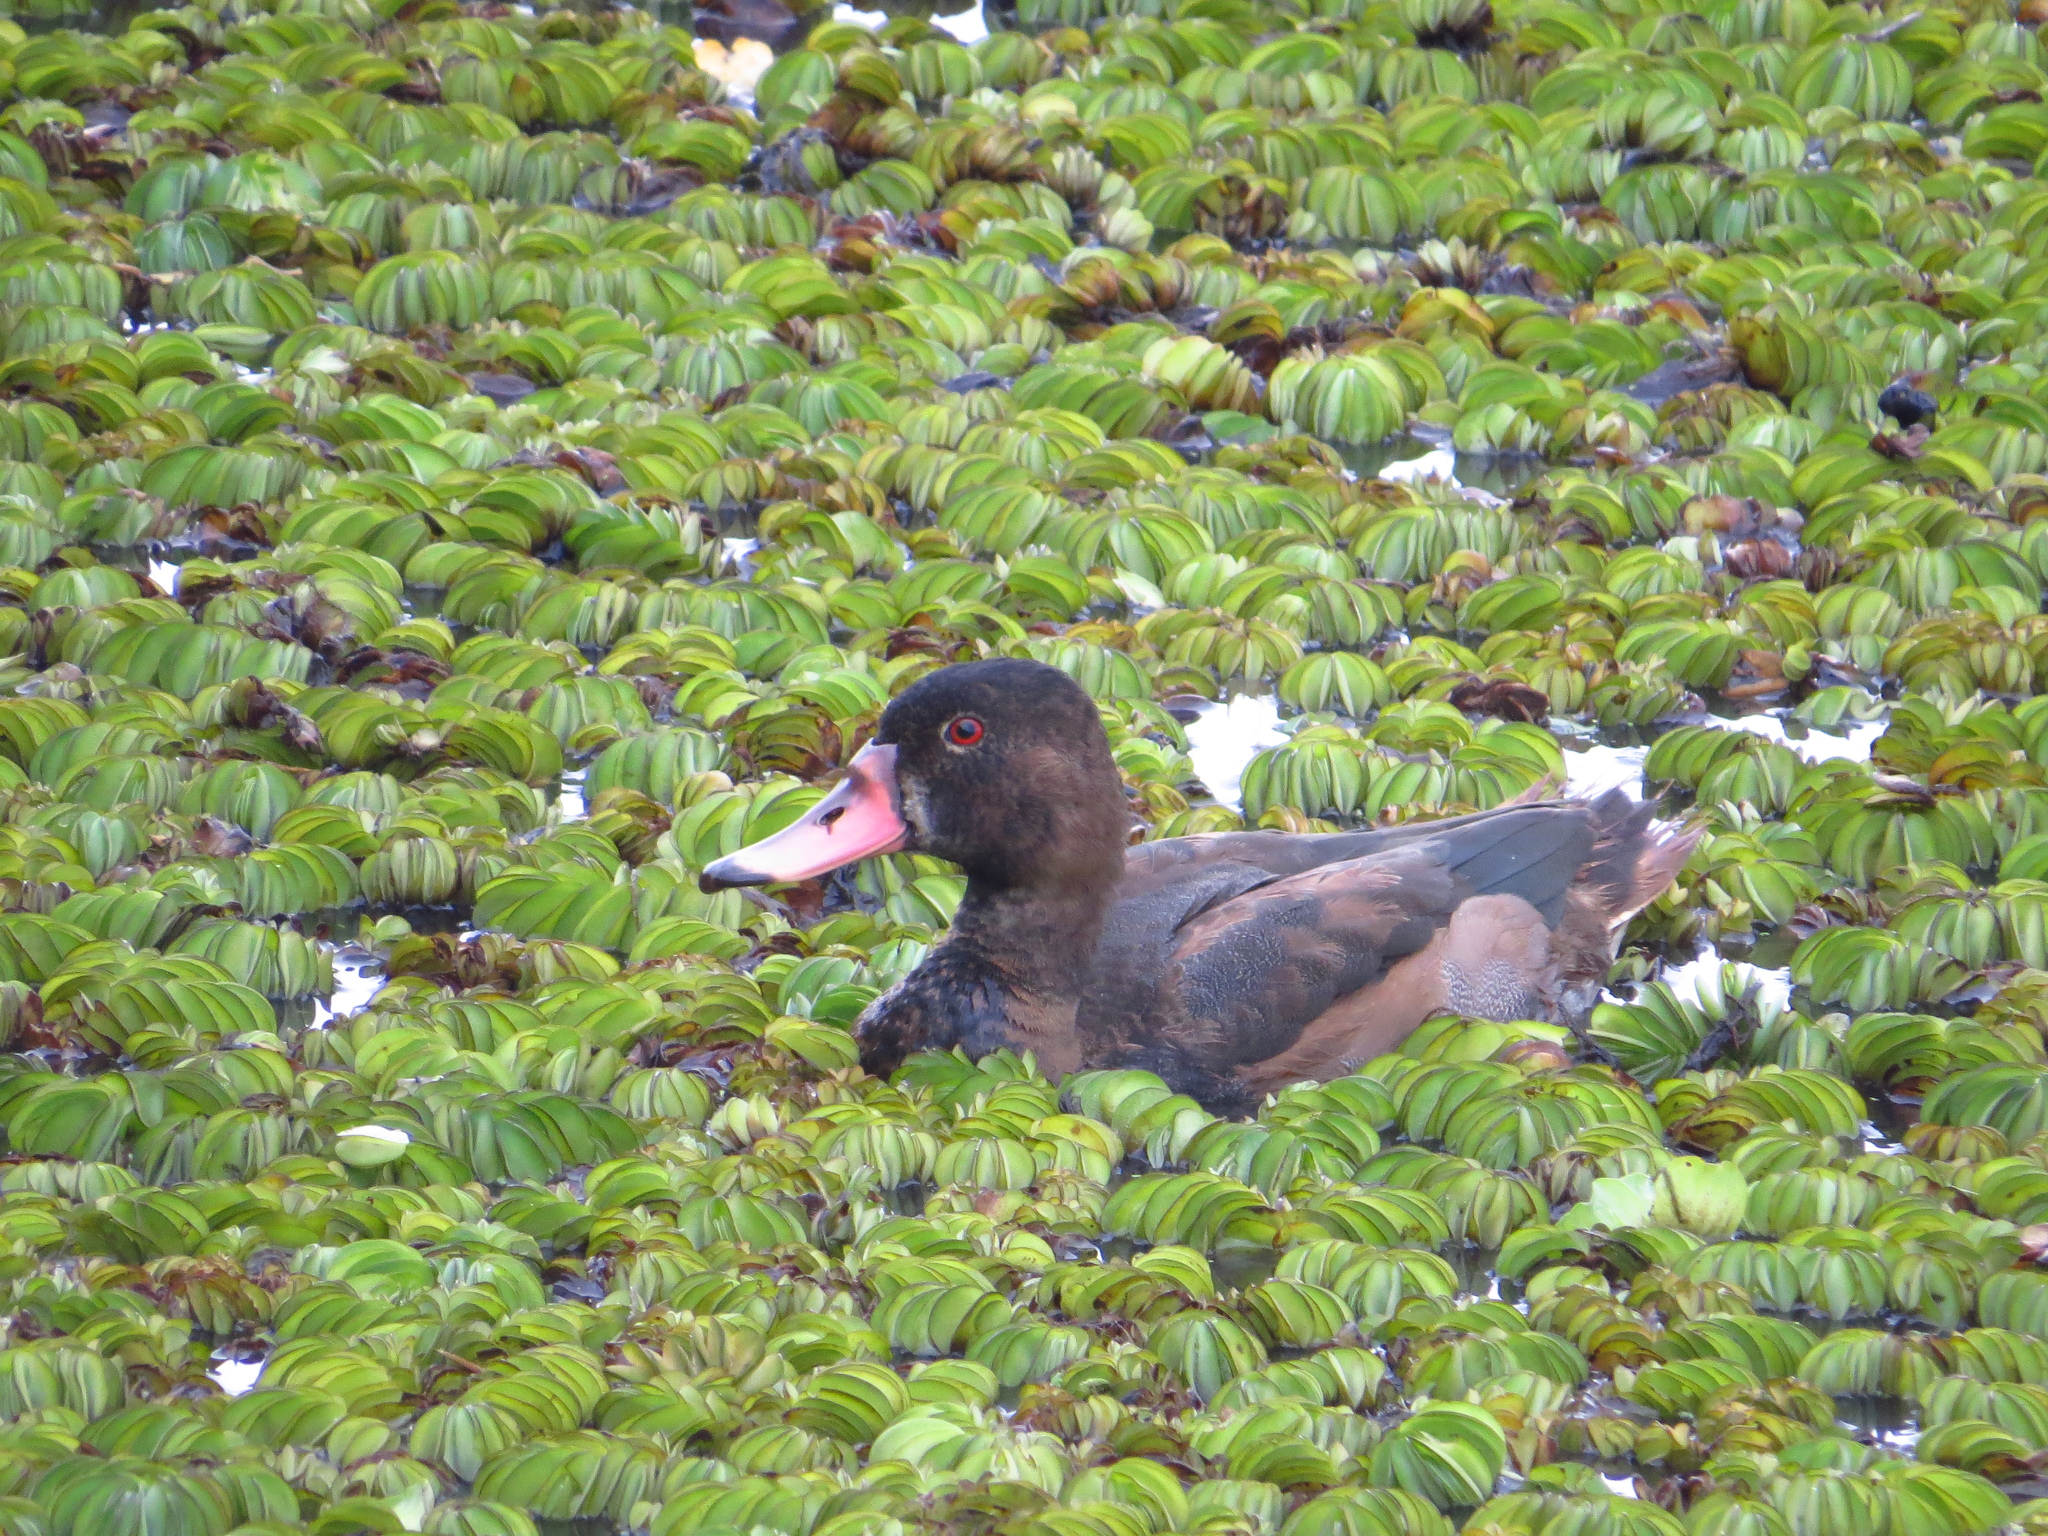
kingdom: Animalia
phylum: Chordata
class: Aves
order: Anseriformes
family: Anatidae
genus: Netta
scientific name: Netta peposaca
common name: Rosy-billed pochard
